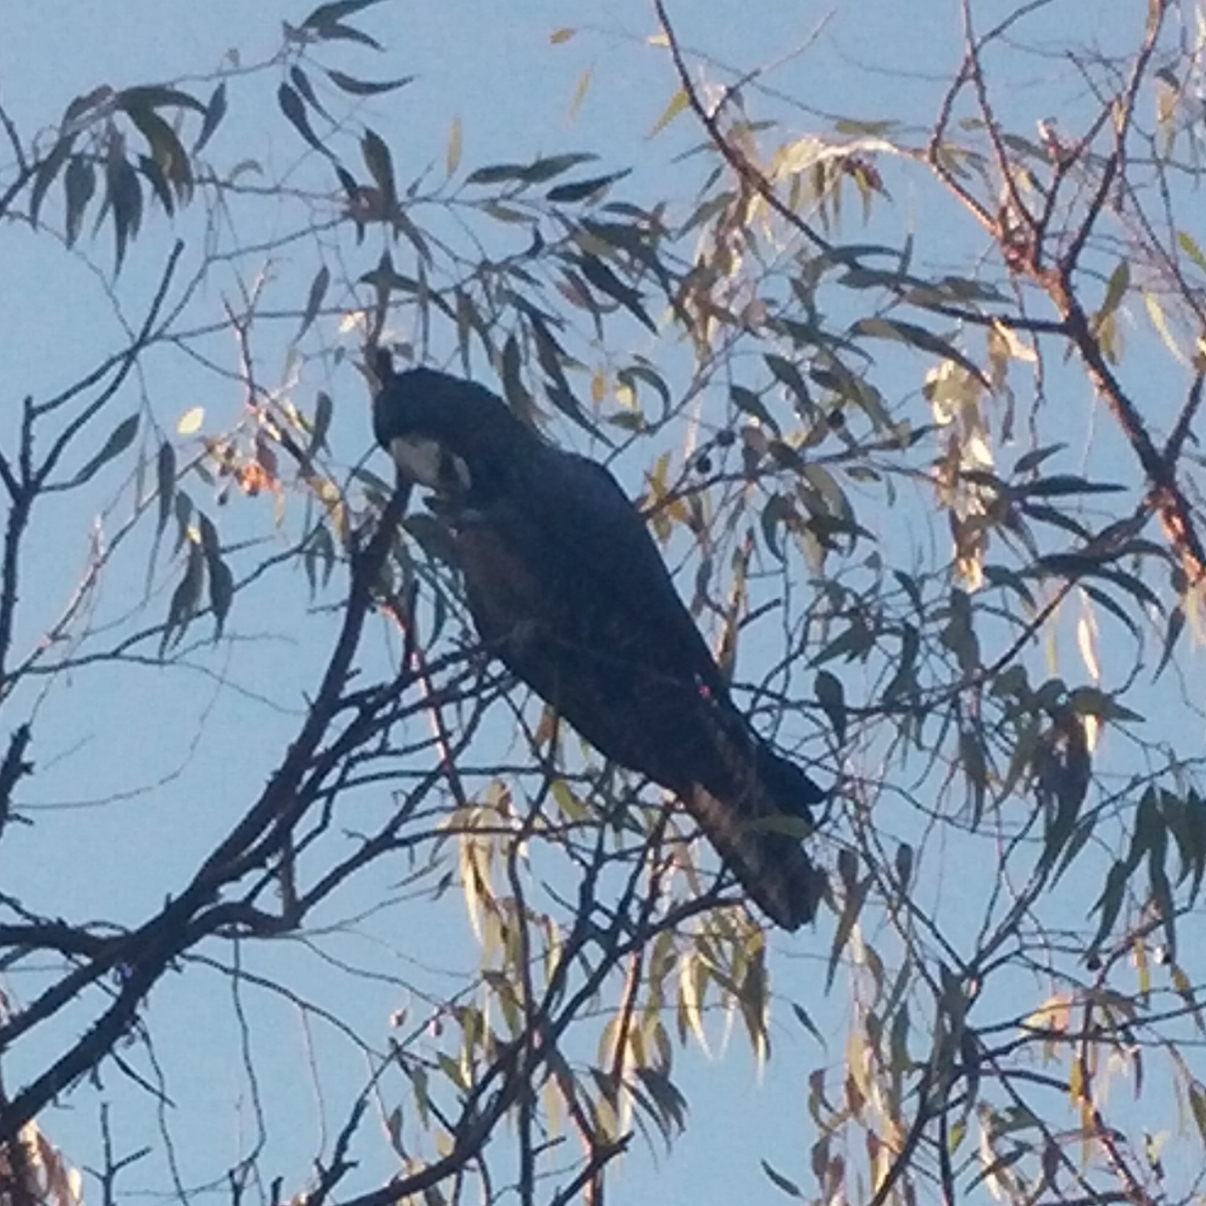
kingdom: Animalia
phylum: Chordata
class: Aves
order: Psittaciformes
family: Psittacidae
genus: Calyptorhynchus
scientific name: Calyptorhynchus banksii
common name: Red-tailed black cockatoo
